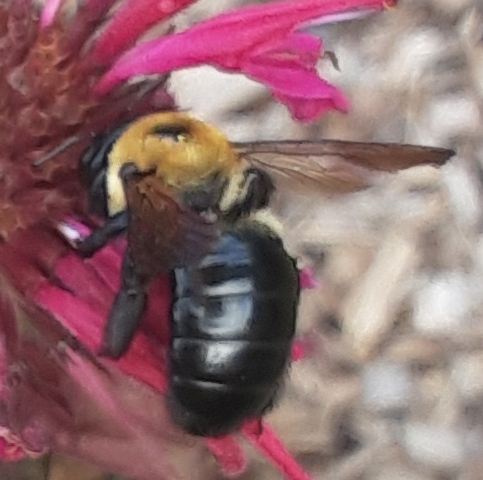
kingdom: Animalia
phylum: Arthropoda
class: Insecta
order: Hymenoptera
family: Apidae
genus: Xylocopa
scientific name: Xylocopa virginica
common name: Carpenter bee
